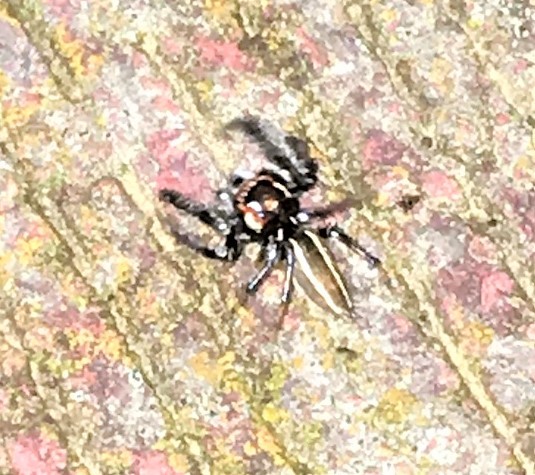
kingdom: Animalia
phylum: Arthropoda
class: Arachnida
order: Araneae
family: Salticidae
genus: Colonus
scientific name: Colonus sylvanus
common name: Jumping spiders
